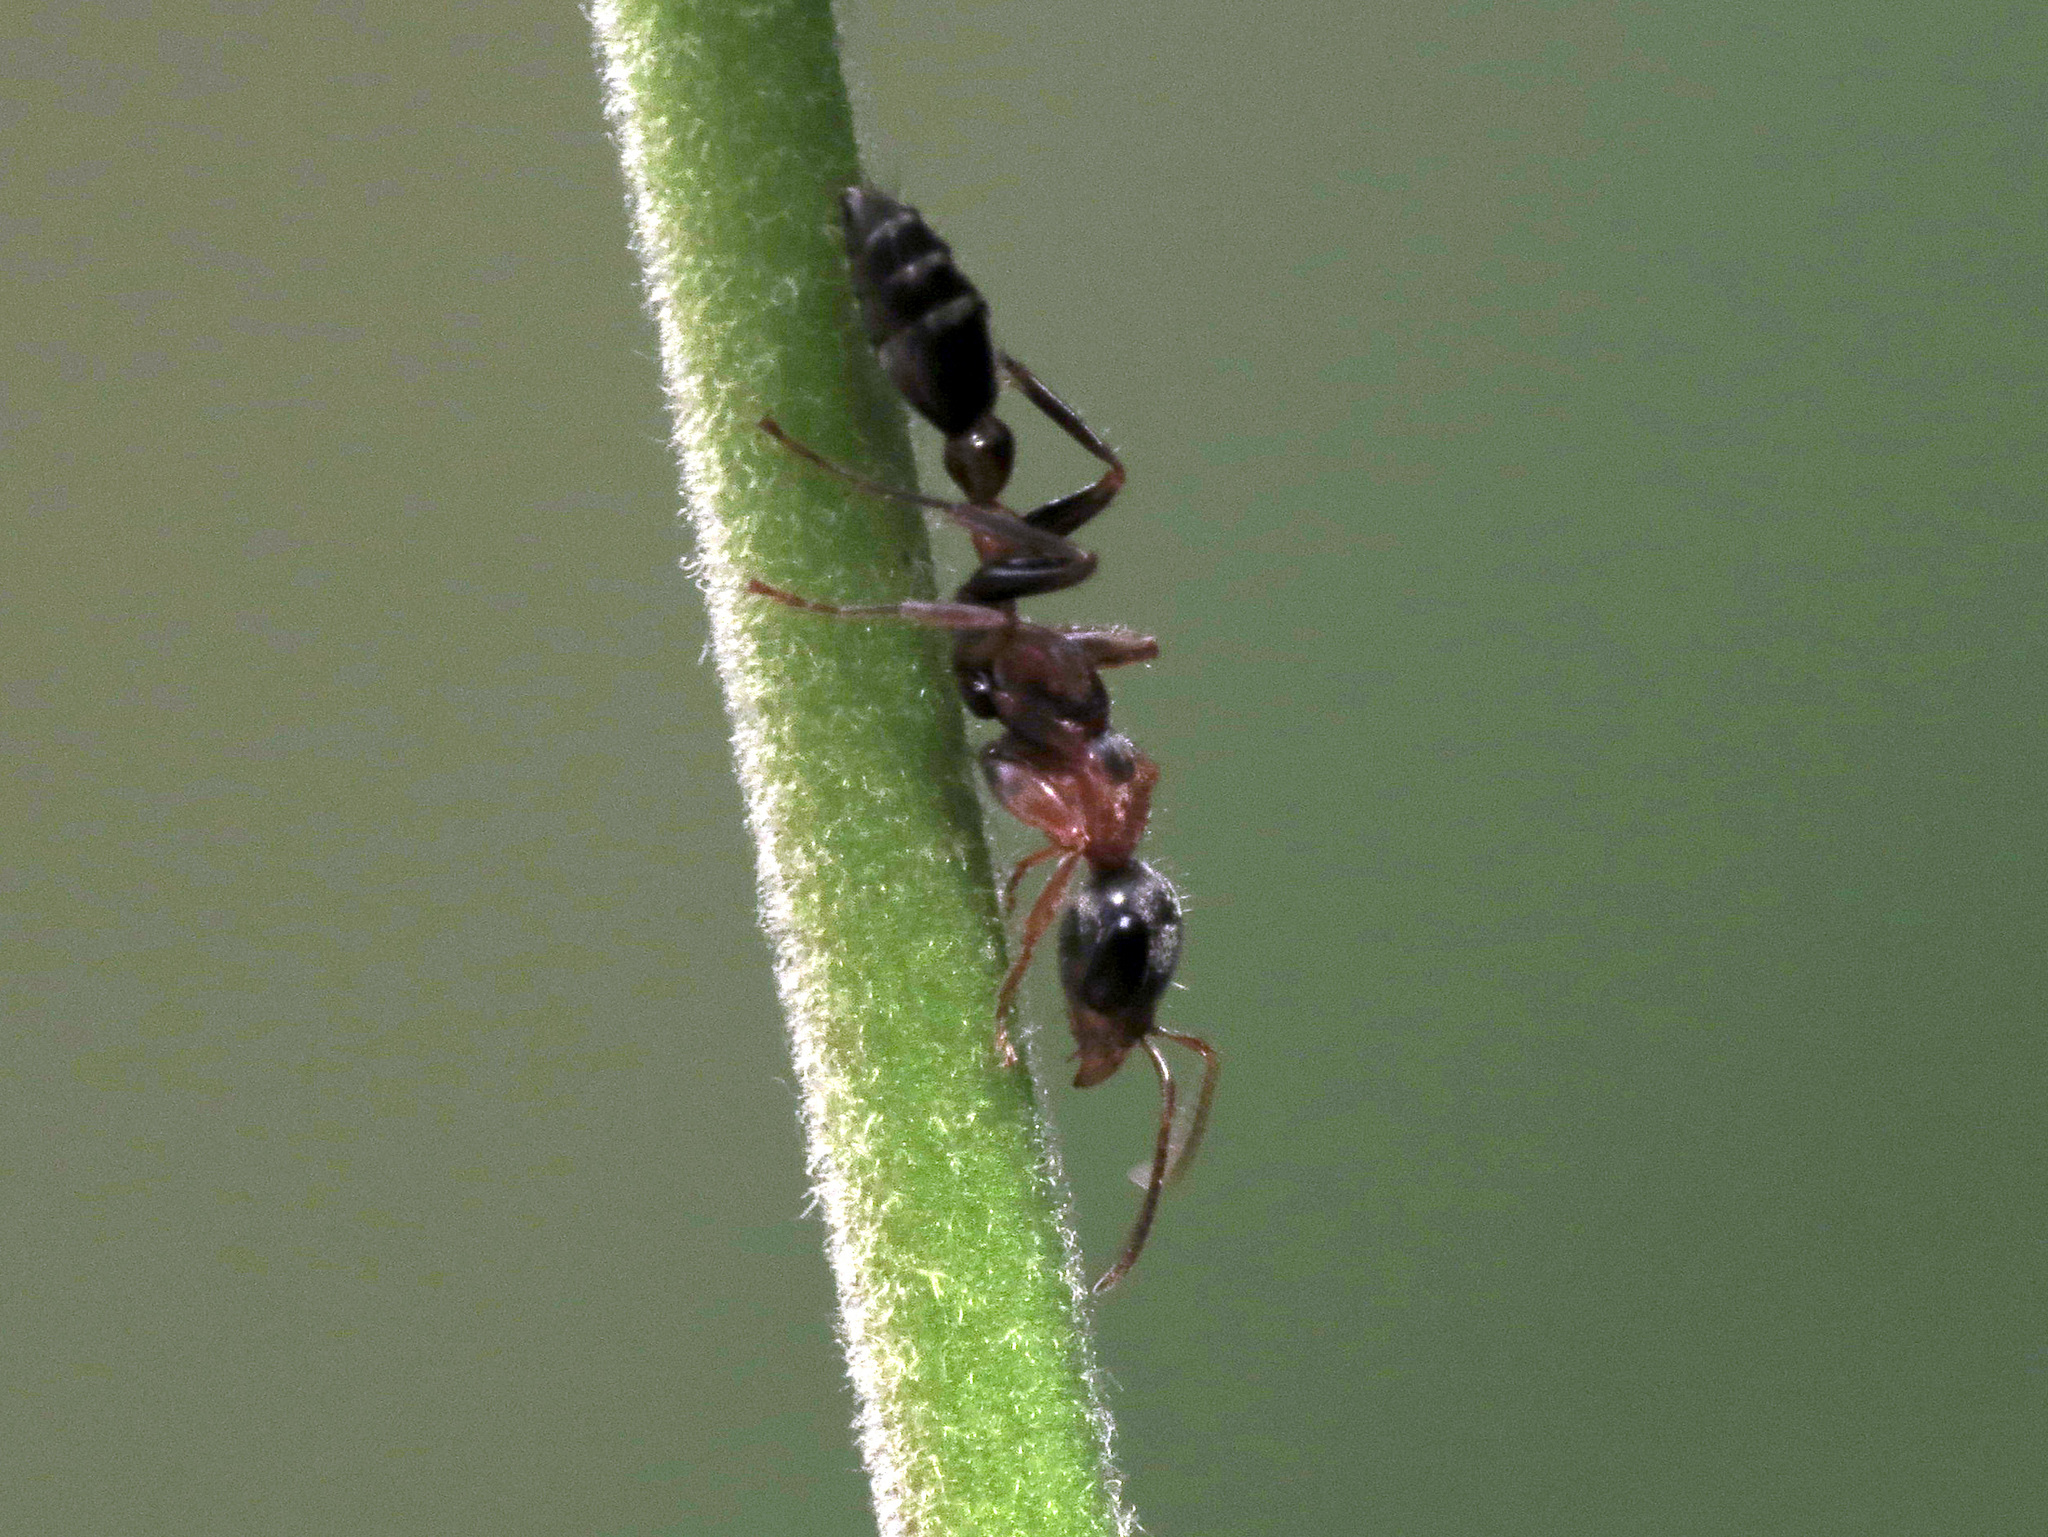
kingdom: Animalia
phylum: Arthropoda
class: Insecta
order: Hymenoptera
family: Formicidae
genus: Pseudomyrmex
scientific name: Pseudomyrmex gracilis
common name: Graceful twig ant
